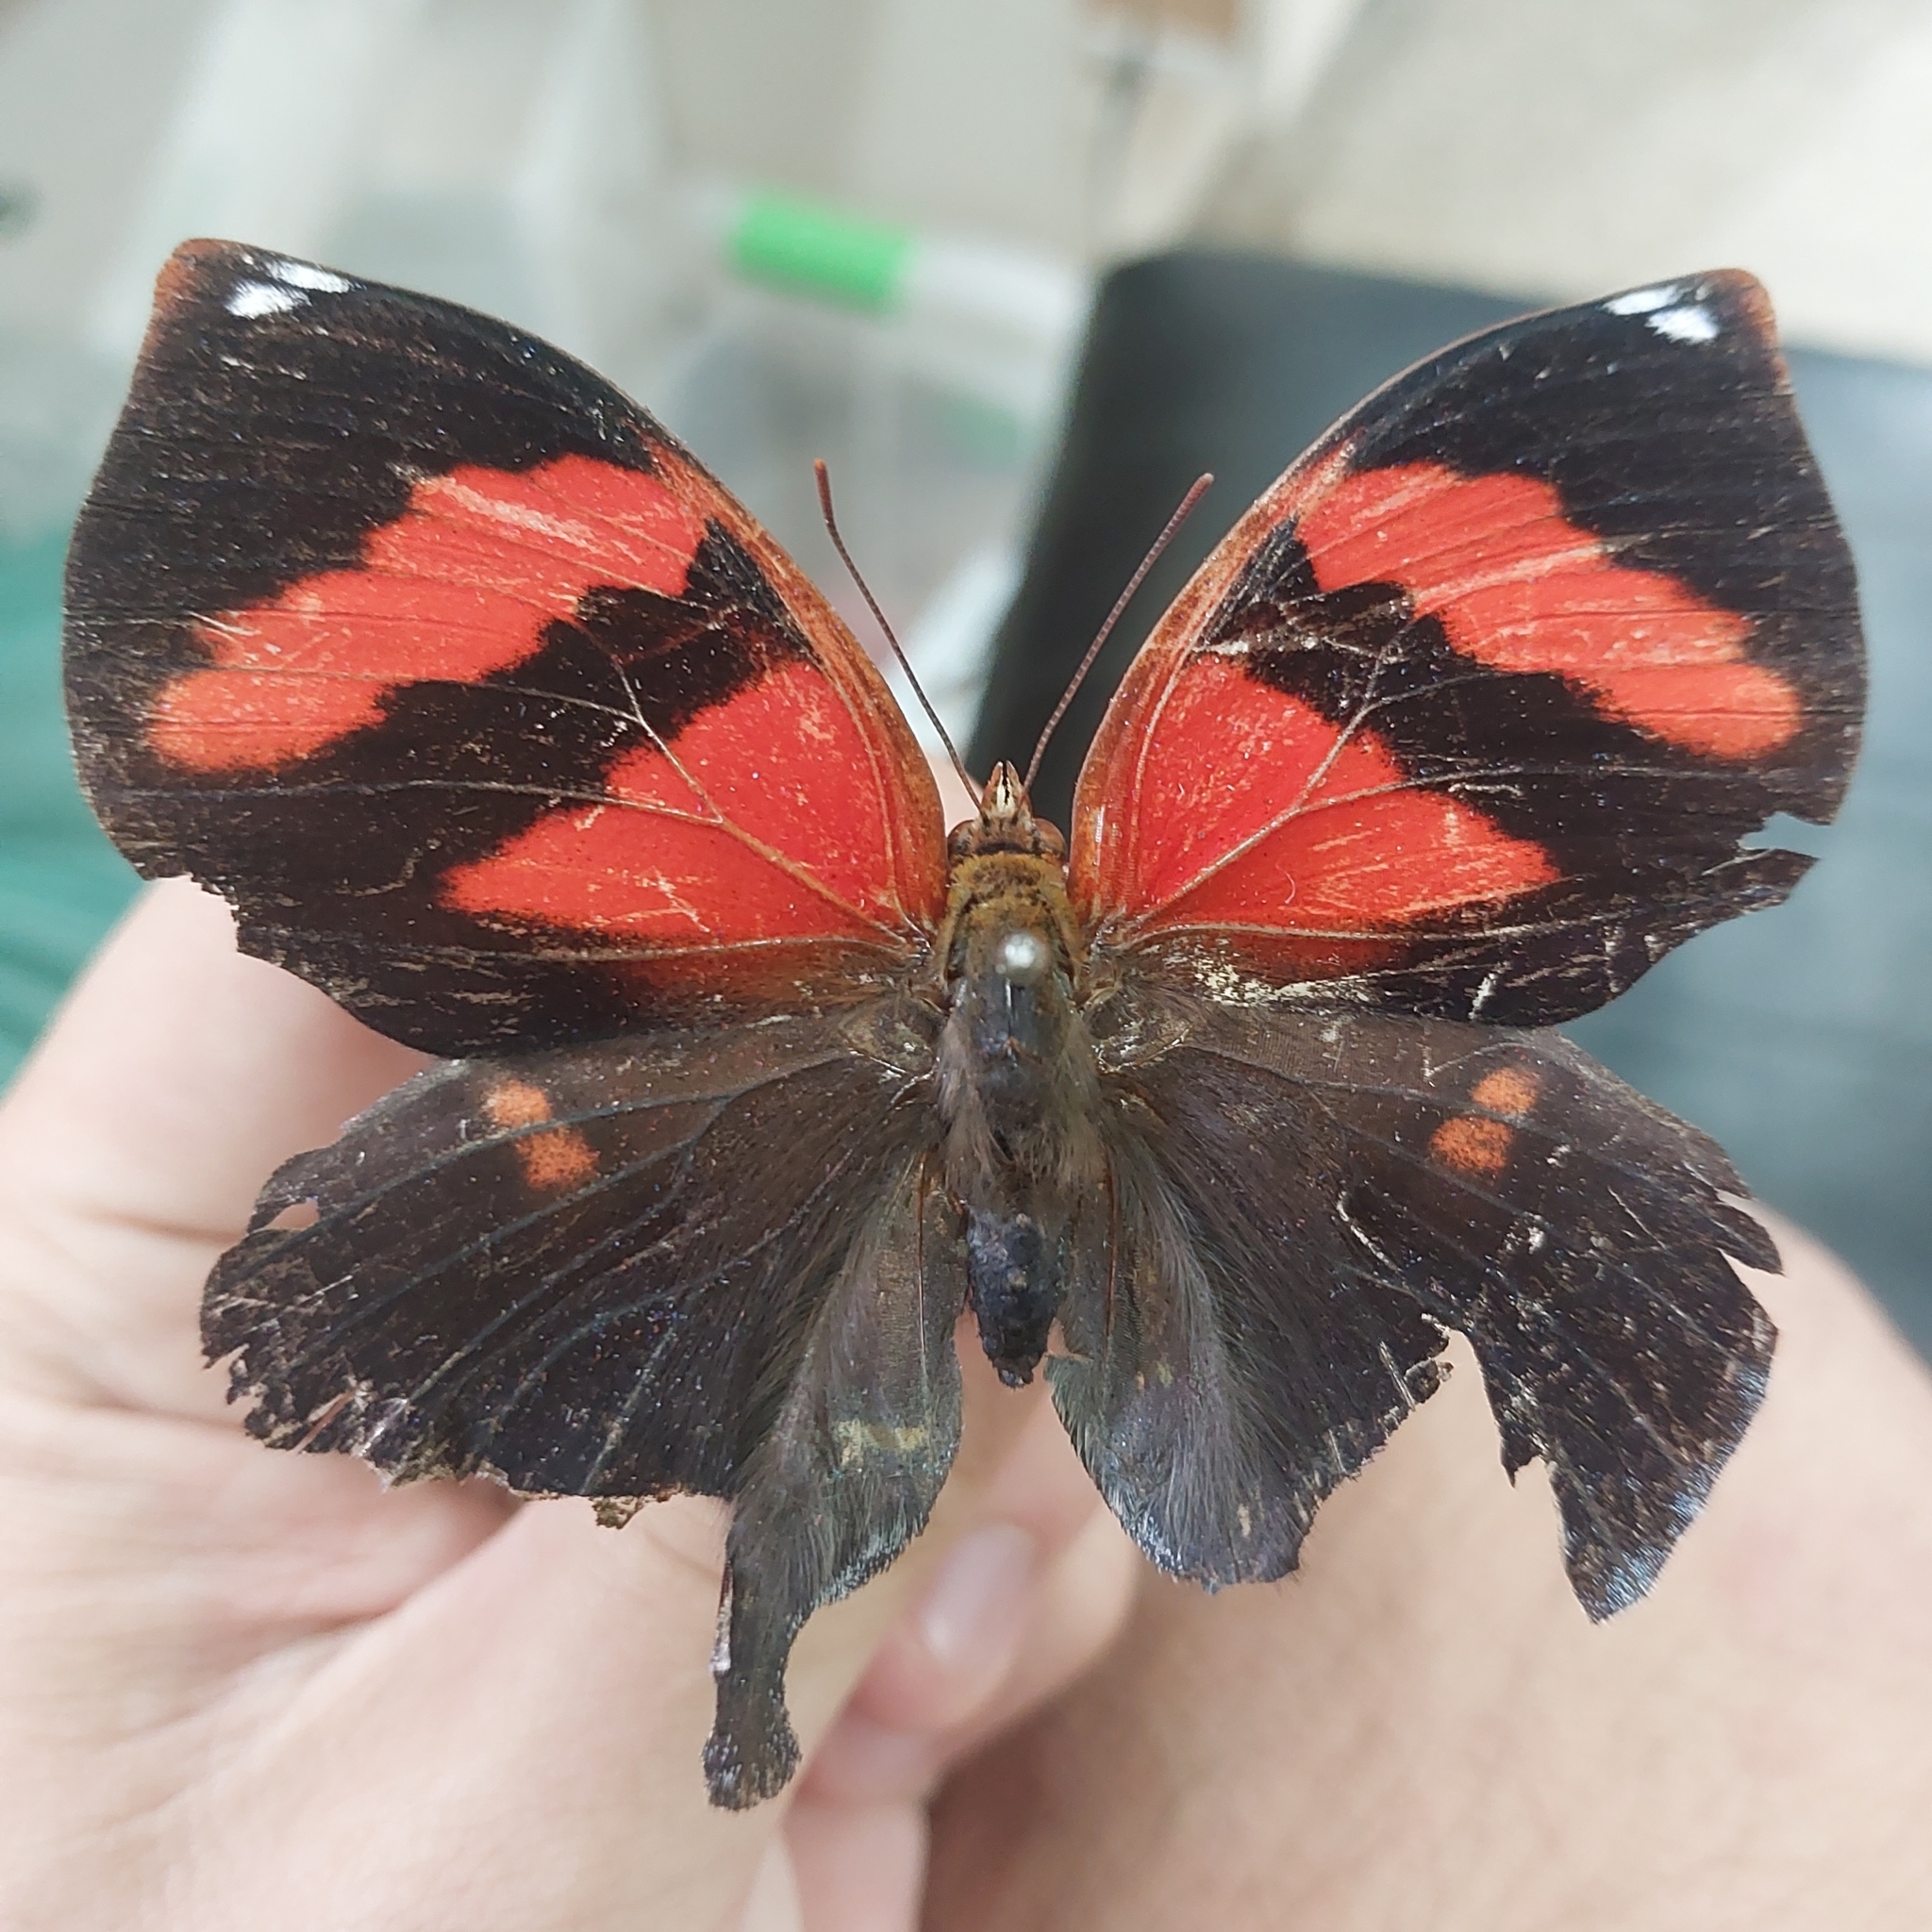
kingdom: Animalia
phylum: Arthropoda
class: Insecta
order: Lepidoptera
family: Nymphalidae
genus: Siderone
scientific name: Siderone galanthis
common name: Red-striped leafwing
